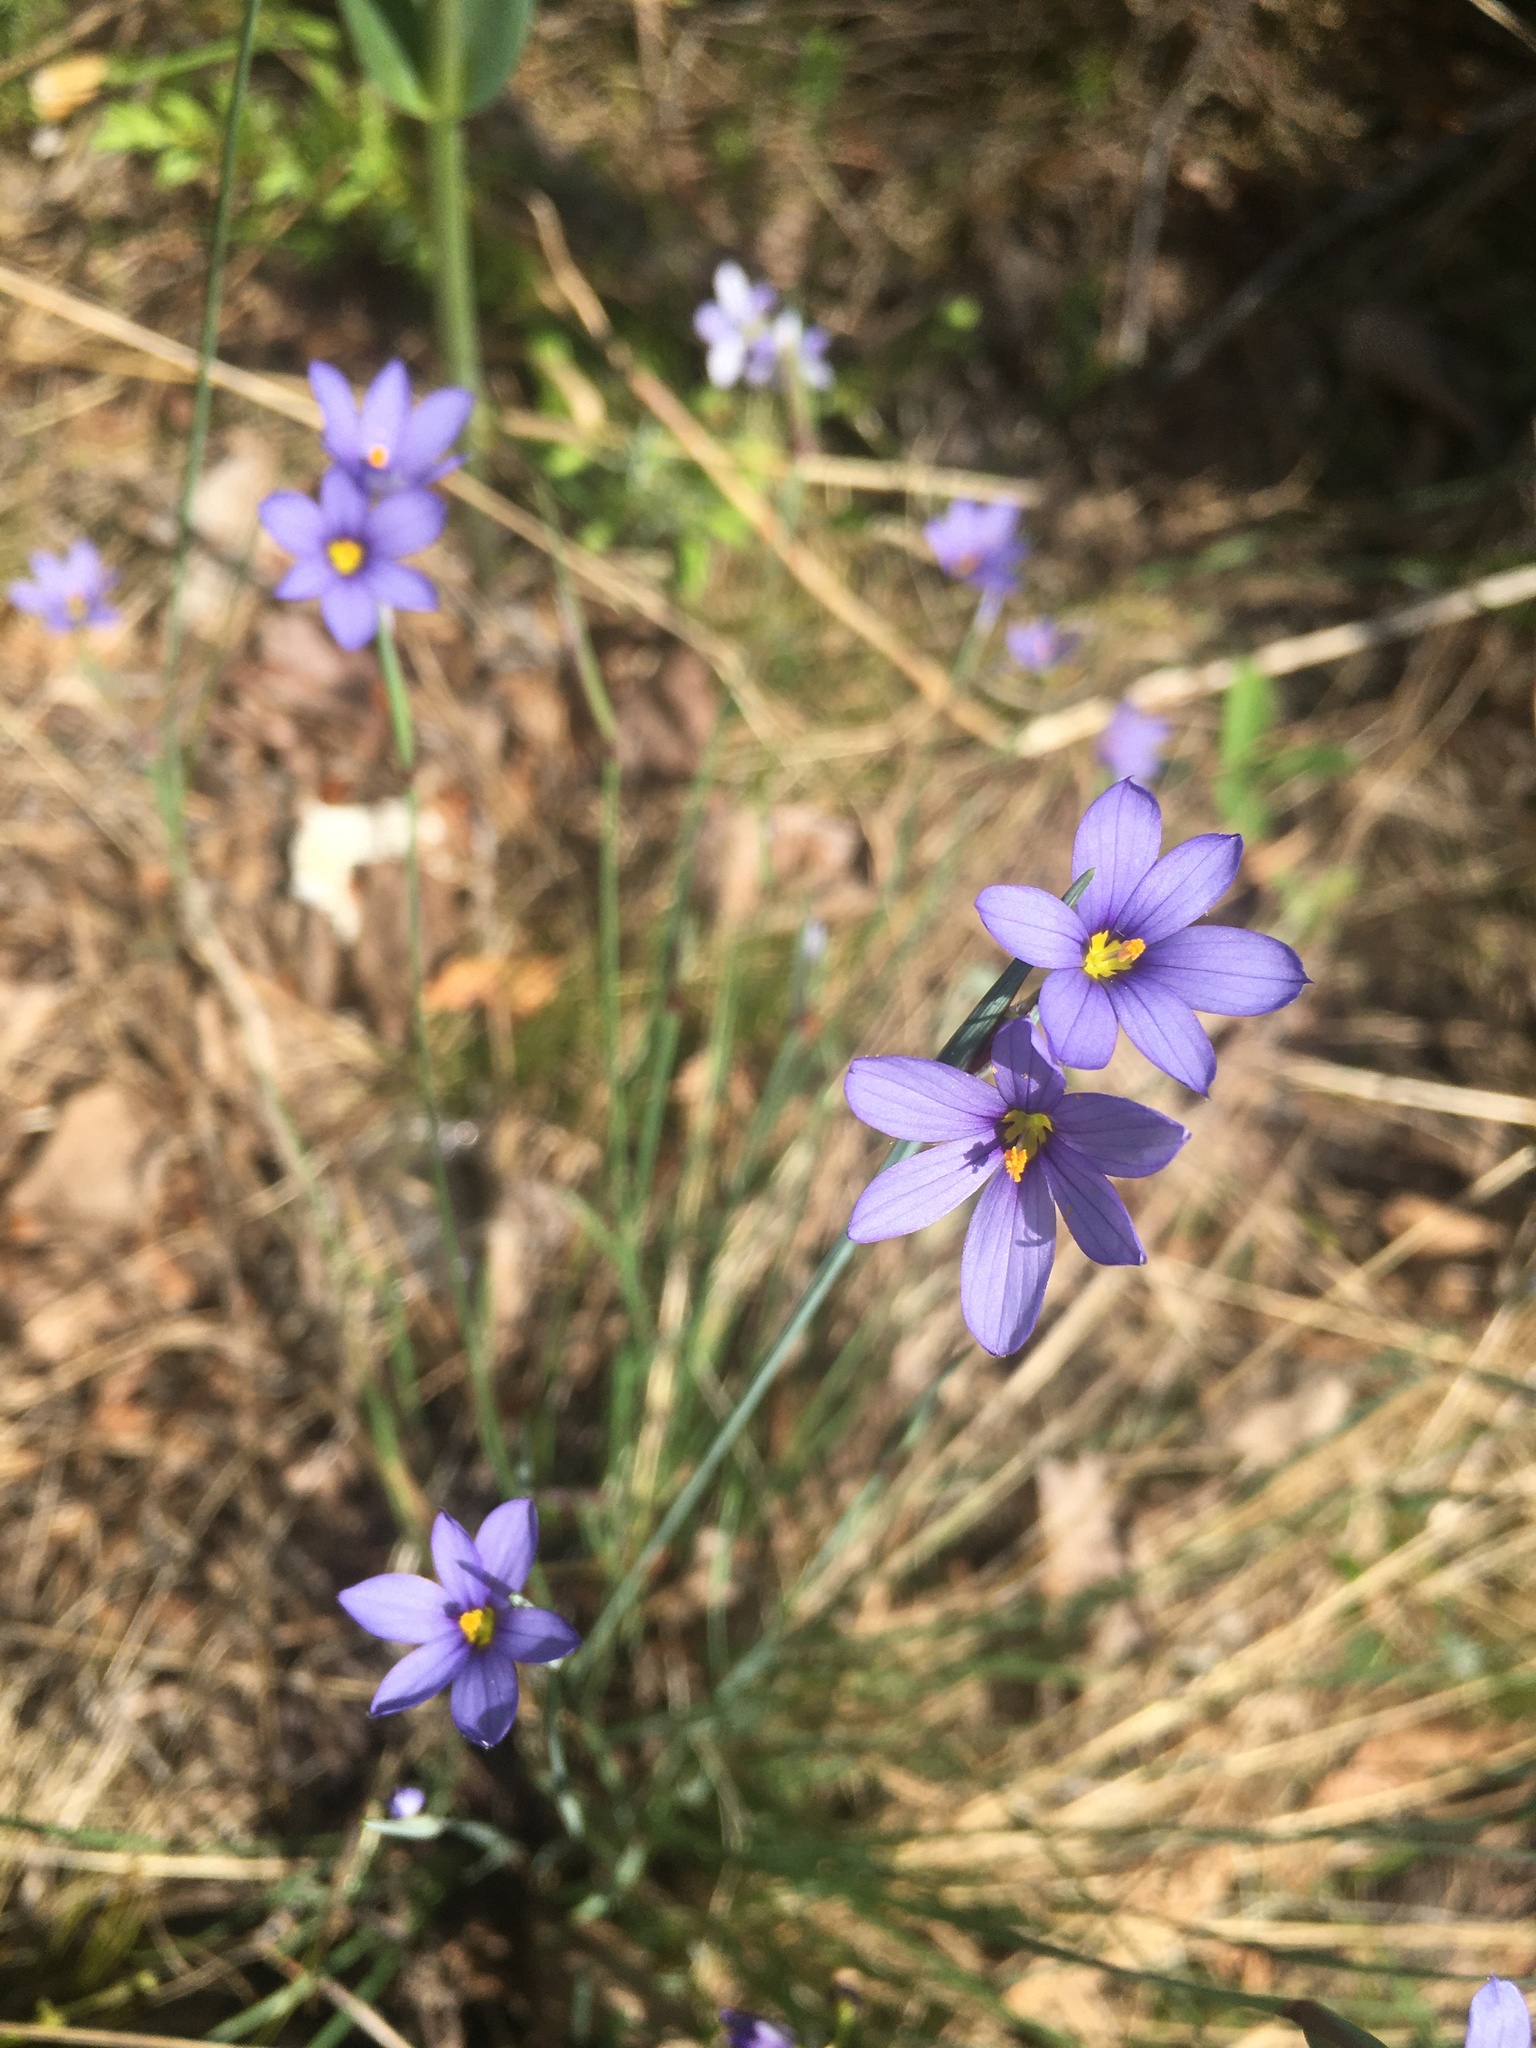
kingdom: Plantae
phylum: Tracheophyta
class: Liliopsida
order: Asparagales
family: Iridaceae
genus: Sisyrinchium
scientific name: Sisyrinchium montanum
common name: American blue-eyed-grass
